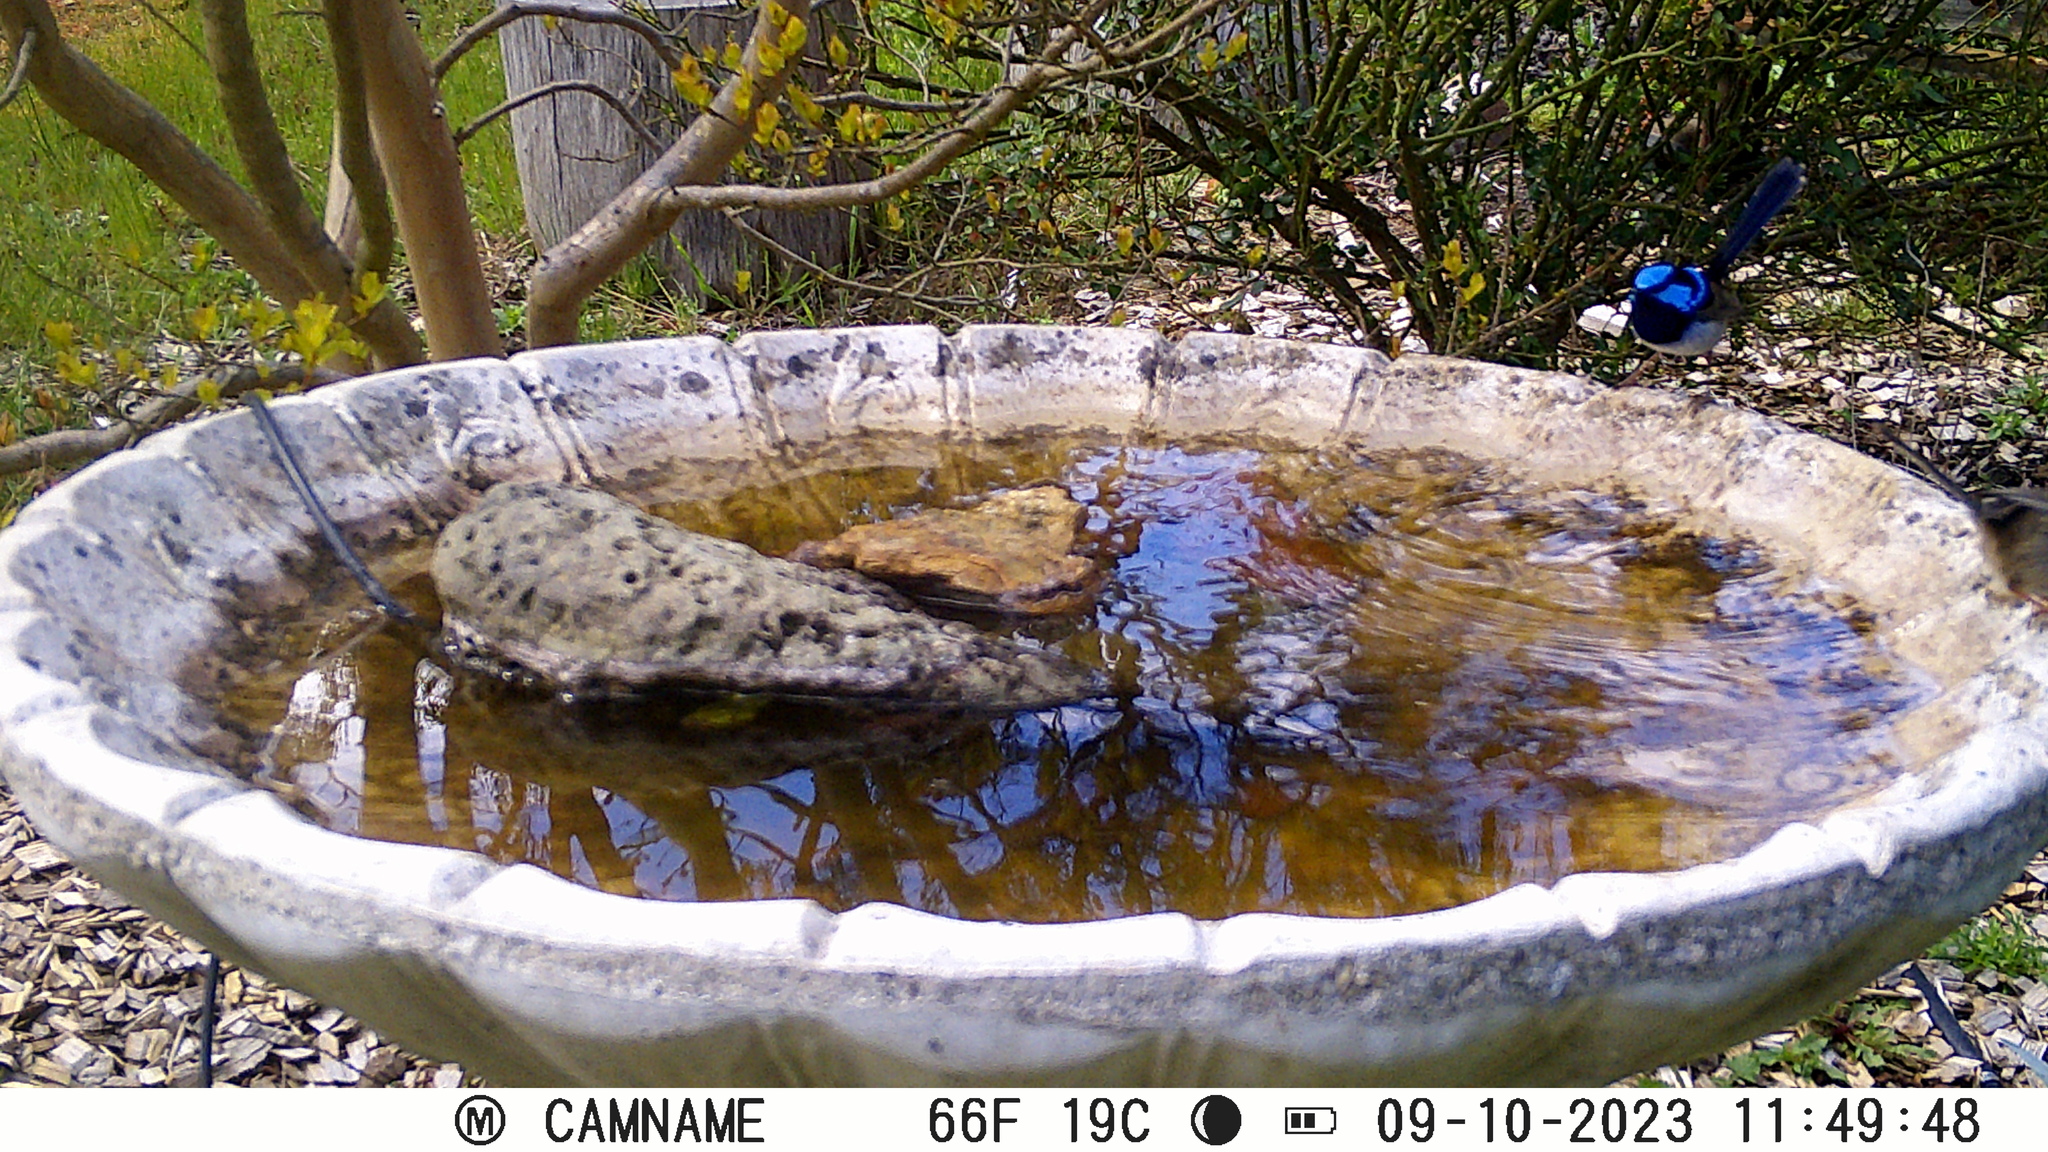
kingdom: Animalia
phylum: Chordata
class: Aves
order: Passeriformes
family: Maluridae
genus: Malurus
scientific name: Malurus cyaneus
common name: Superb fairywren
